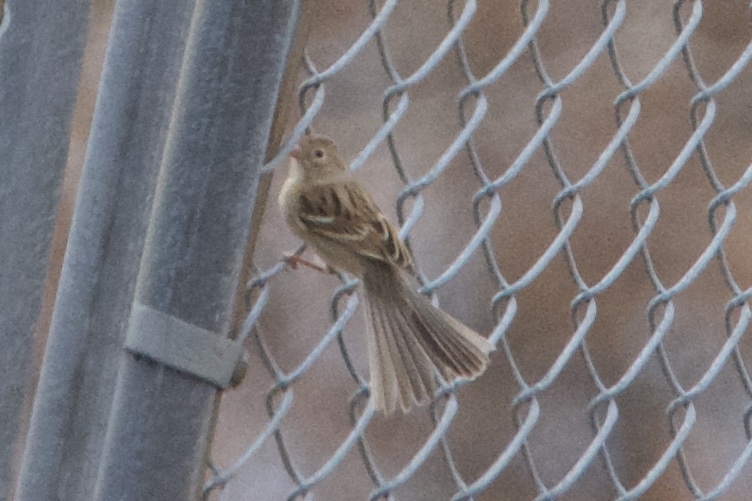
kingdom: Animalia
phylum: Chordata
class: Aves
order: Passeriformes
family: Passerellidae
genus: Spizella
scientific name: Spizella pusilla
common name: Field sparrow
